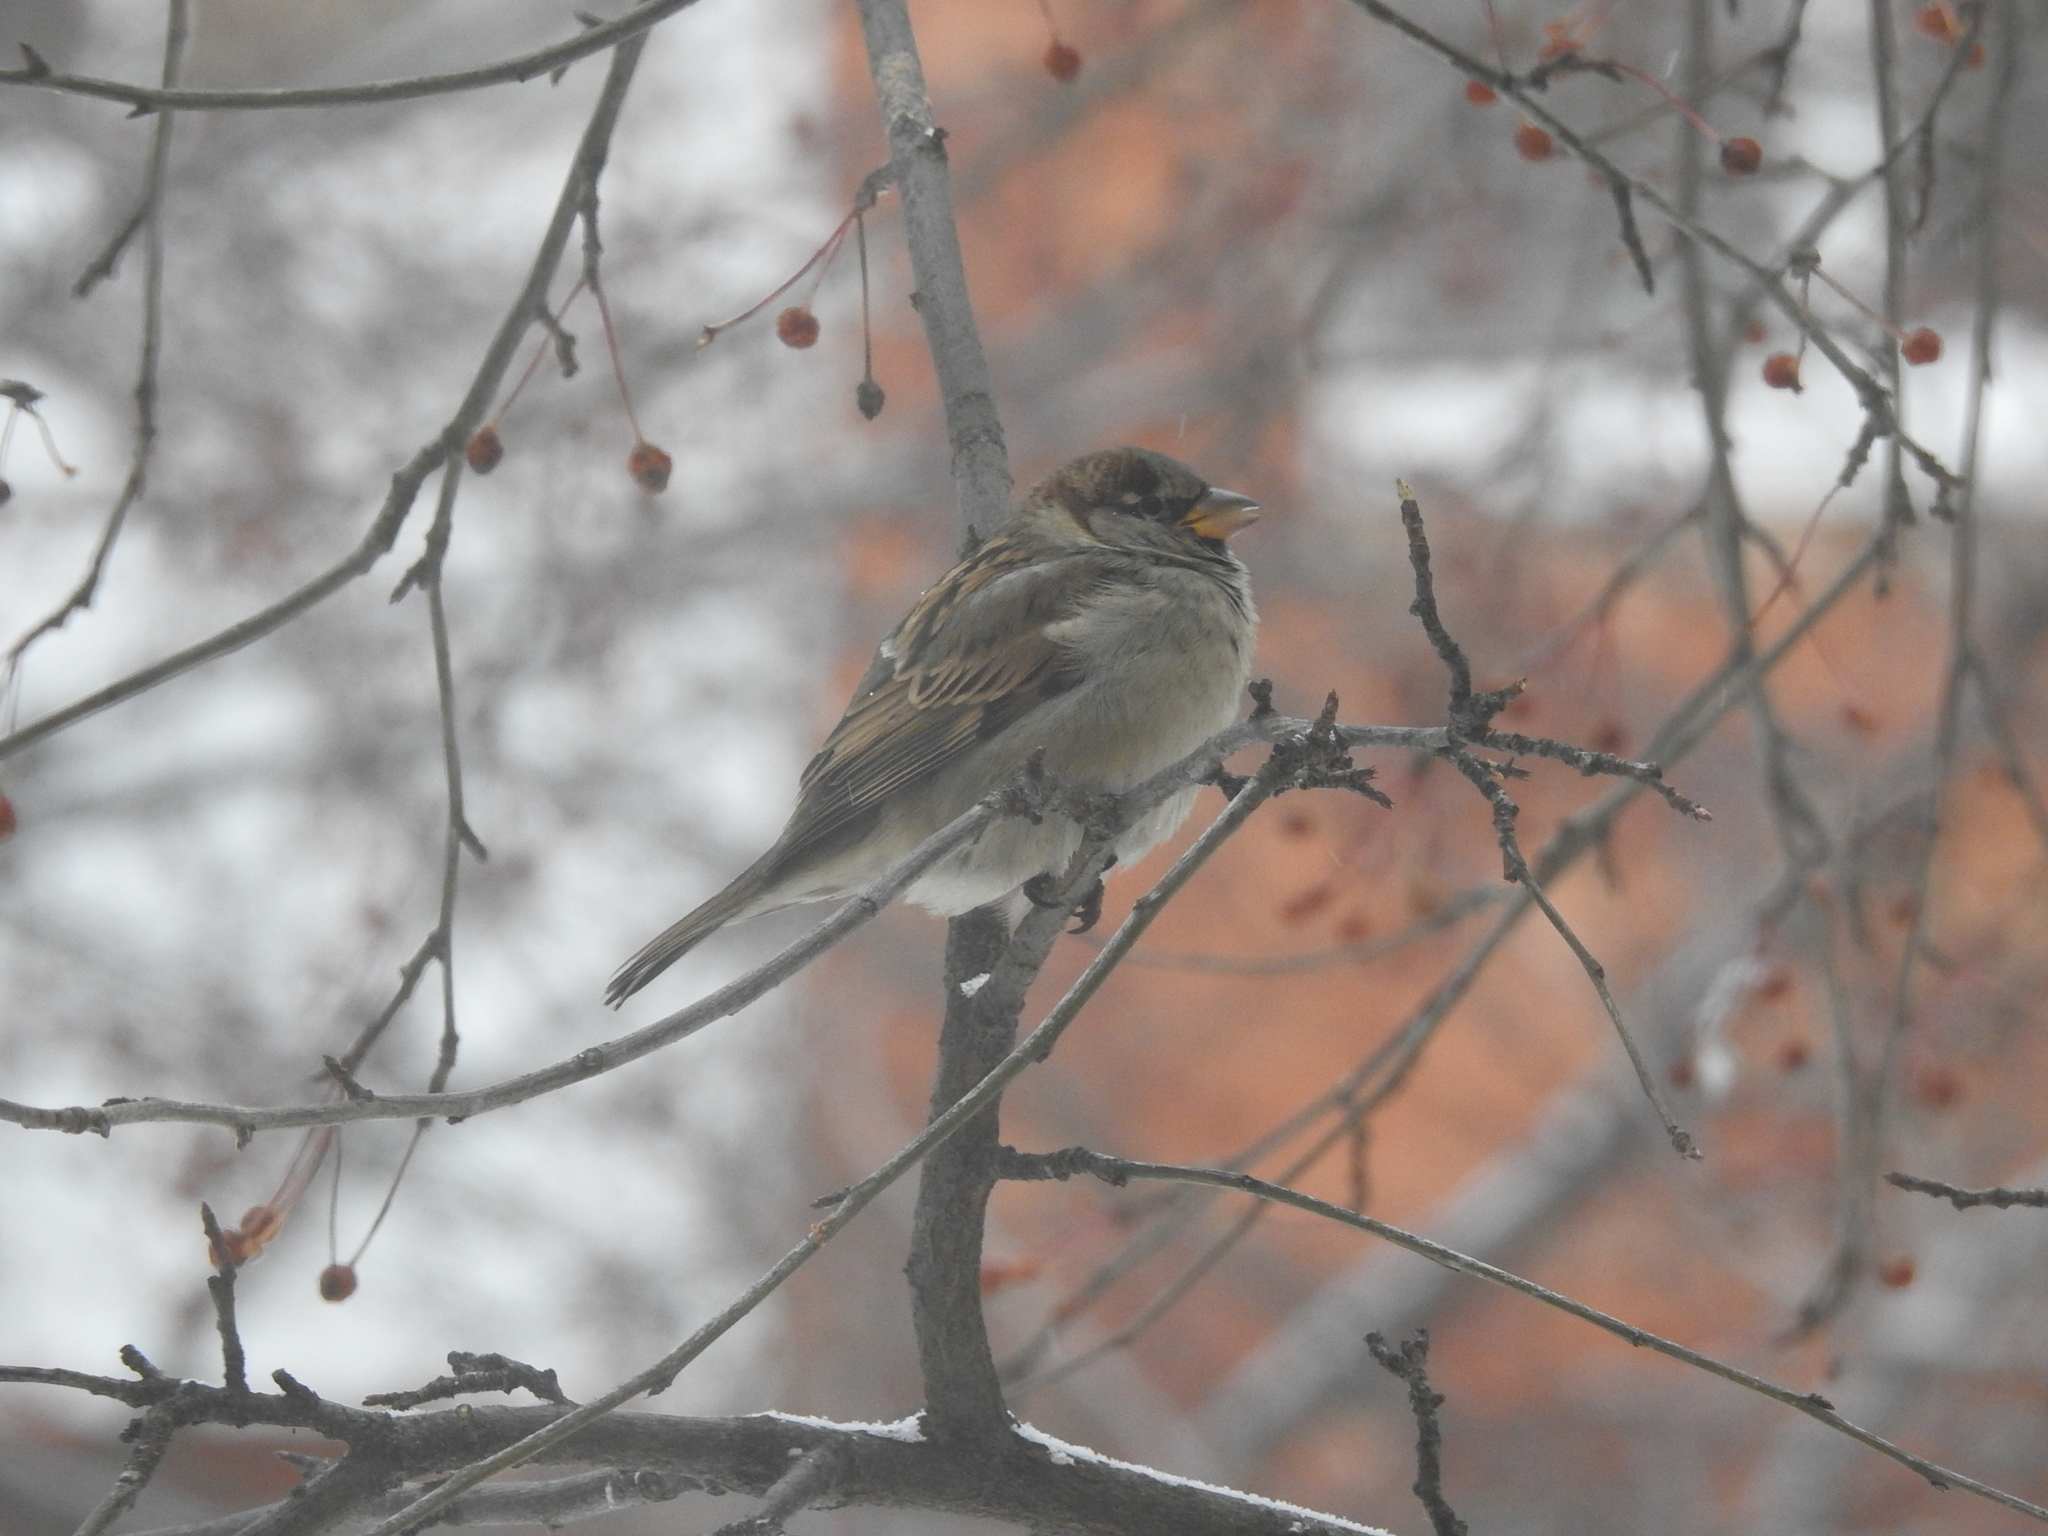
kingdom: Animalia
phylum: Chordata
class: Aves
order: Passeriformes
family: Passeridae
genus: Passer
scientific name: Passer domesticus
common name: House sparrow
